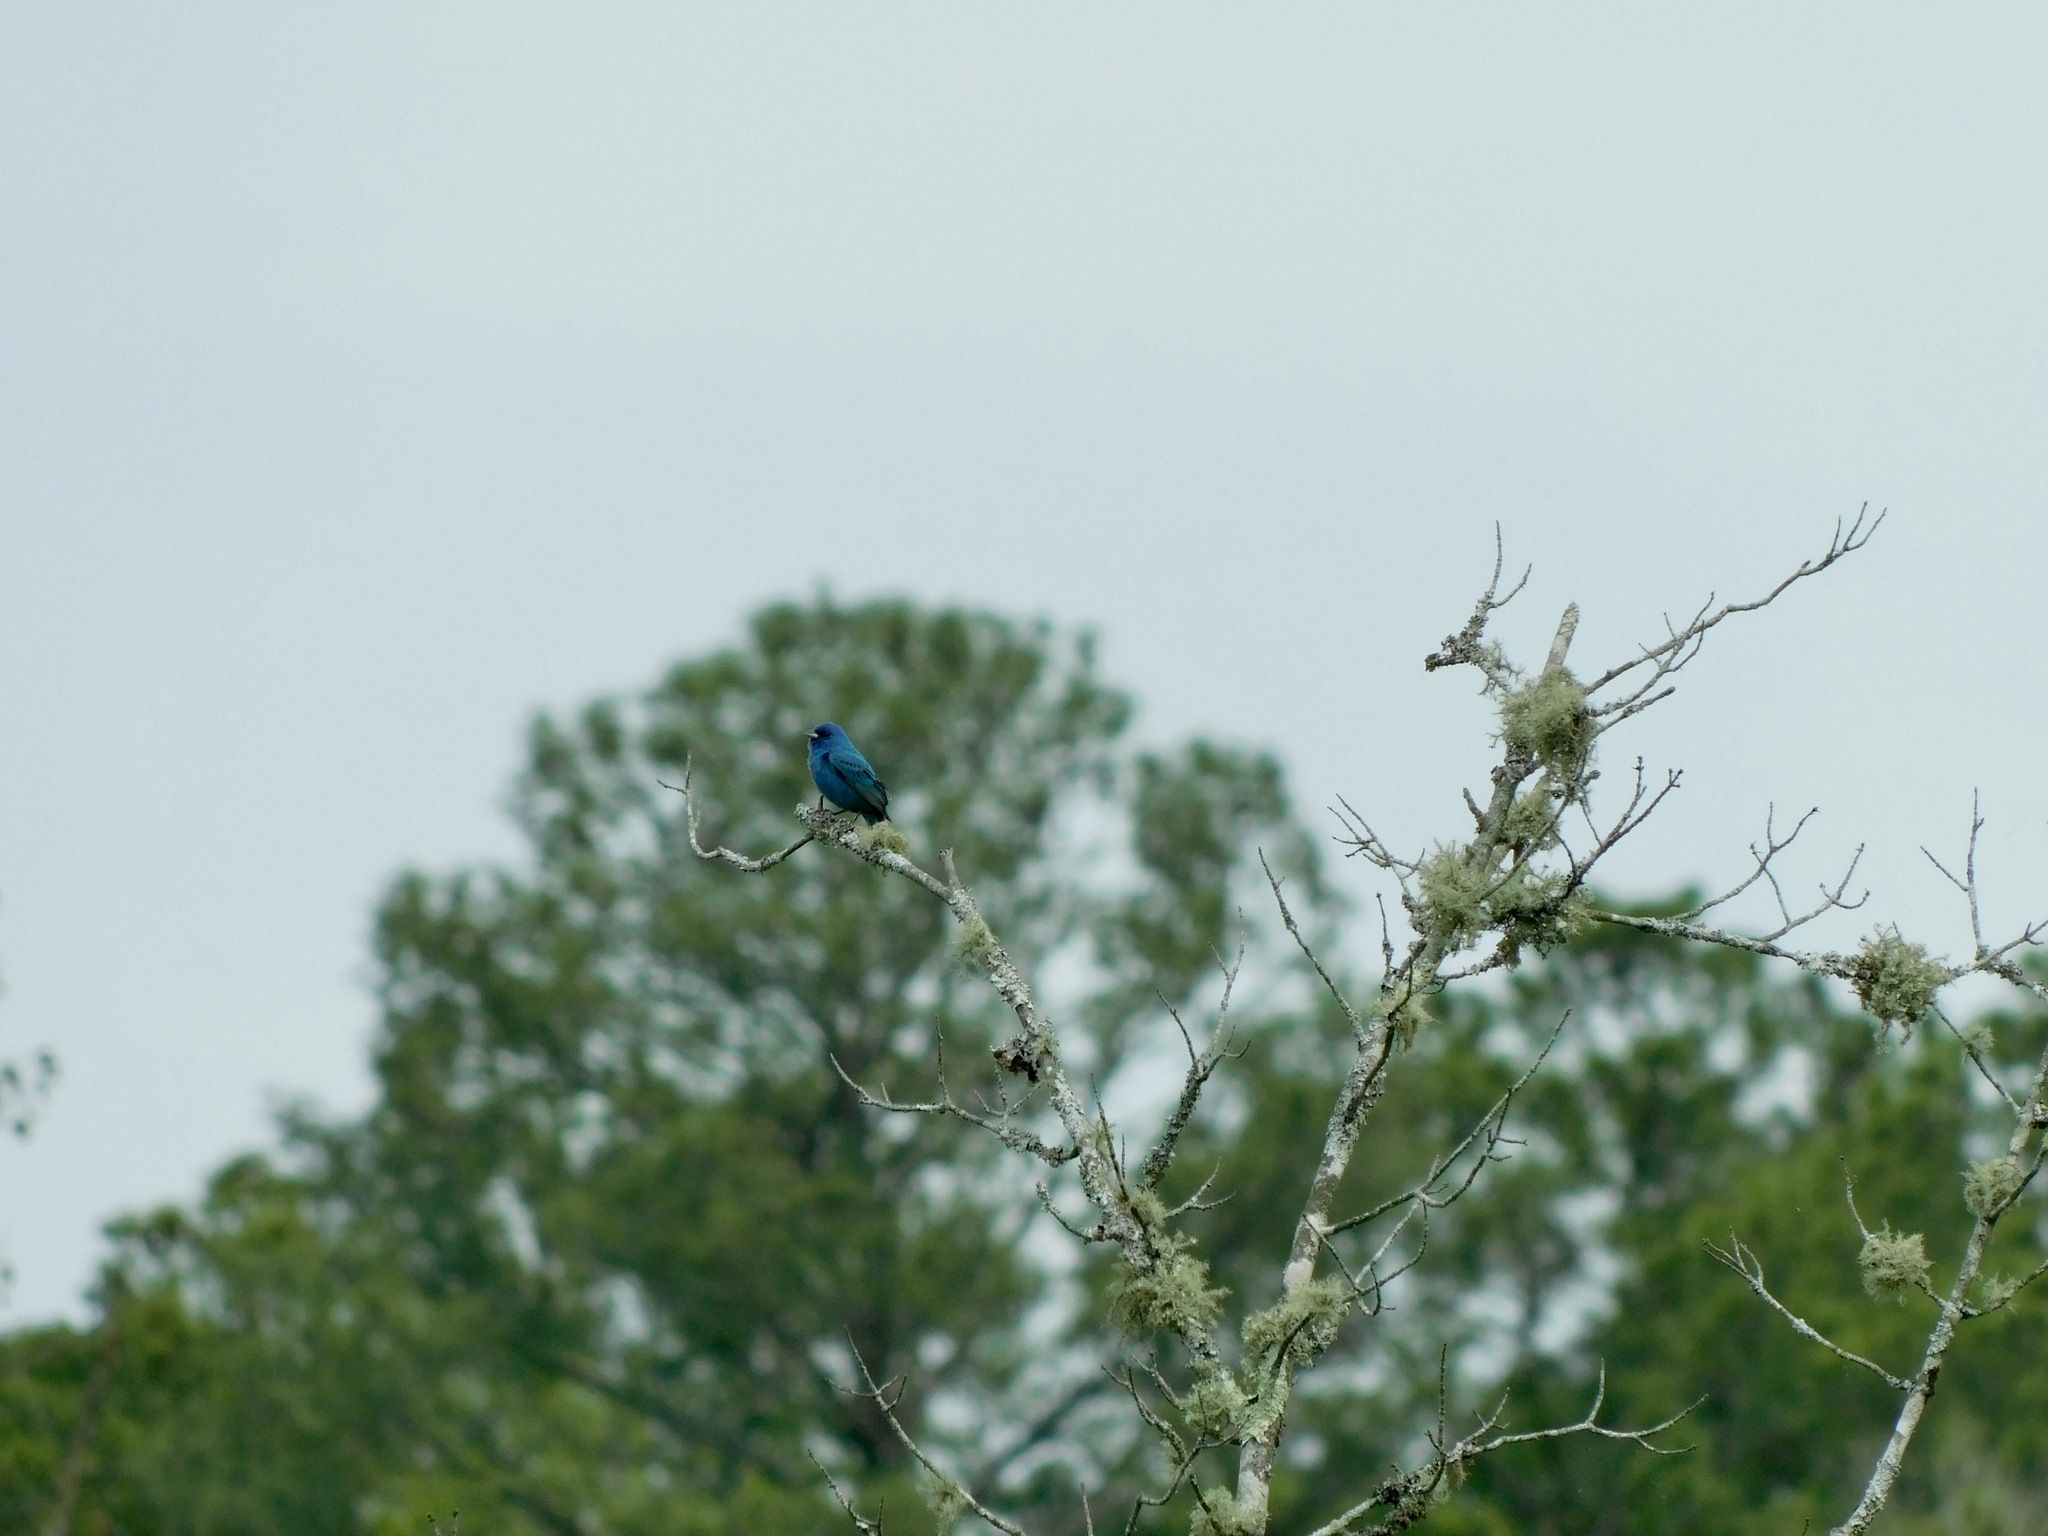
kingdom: Animalia
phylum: Chordata
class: Aves
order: Passeriformes
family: Cardinalidae
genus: Passerina
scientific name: Passerina cyanea
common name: Indigo bunting
